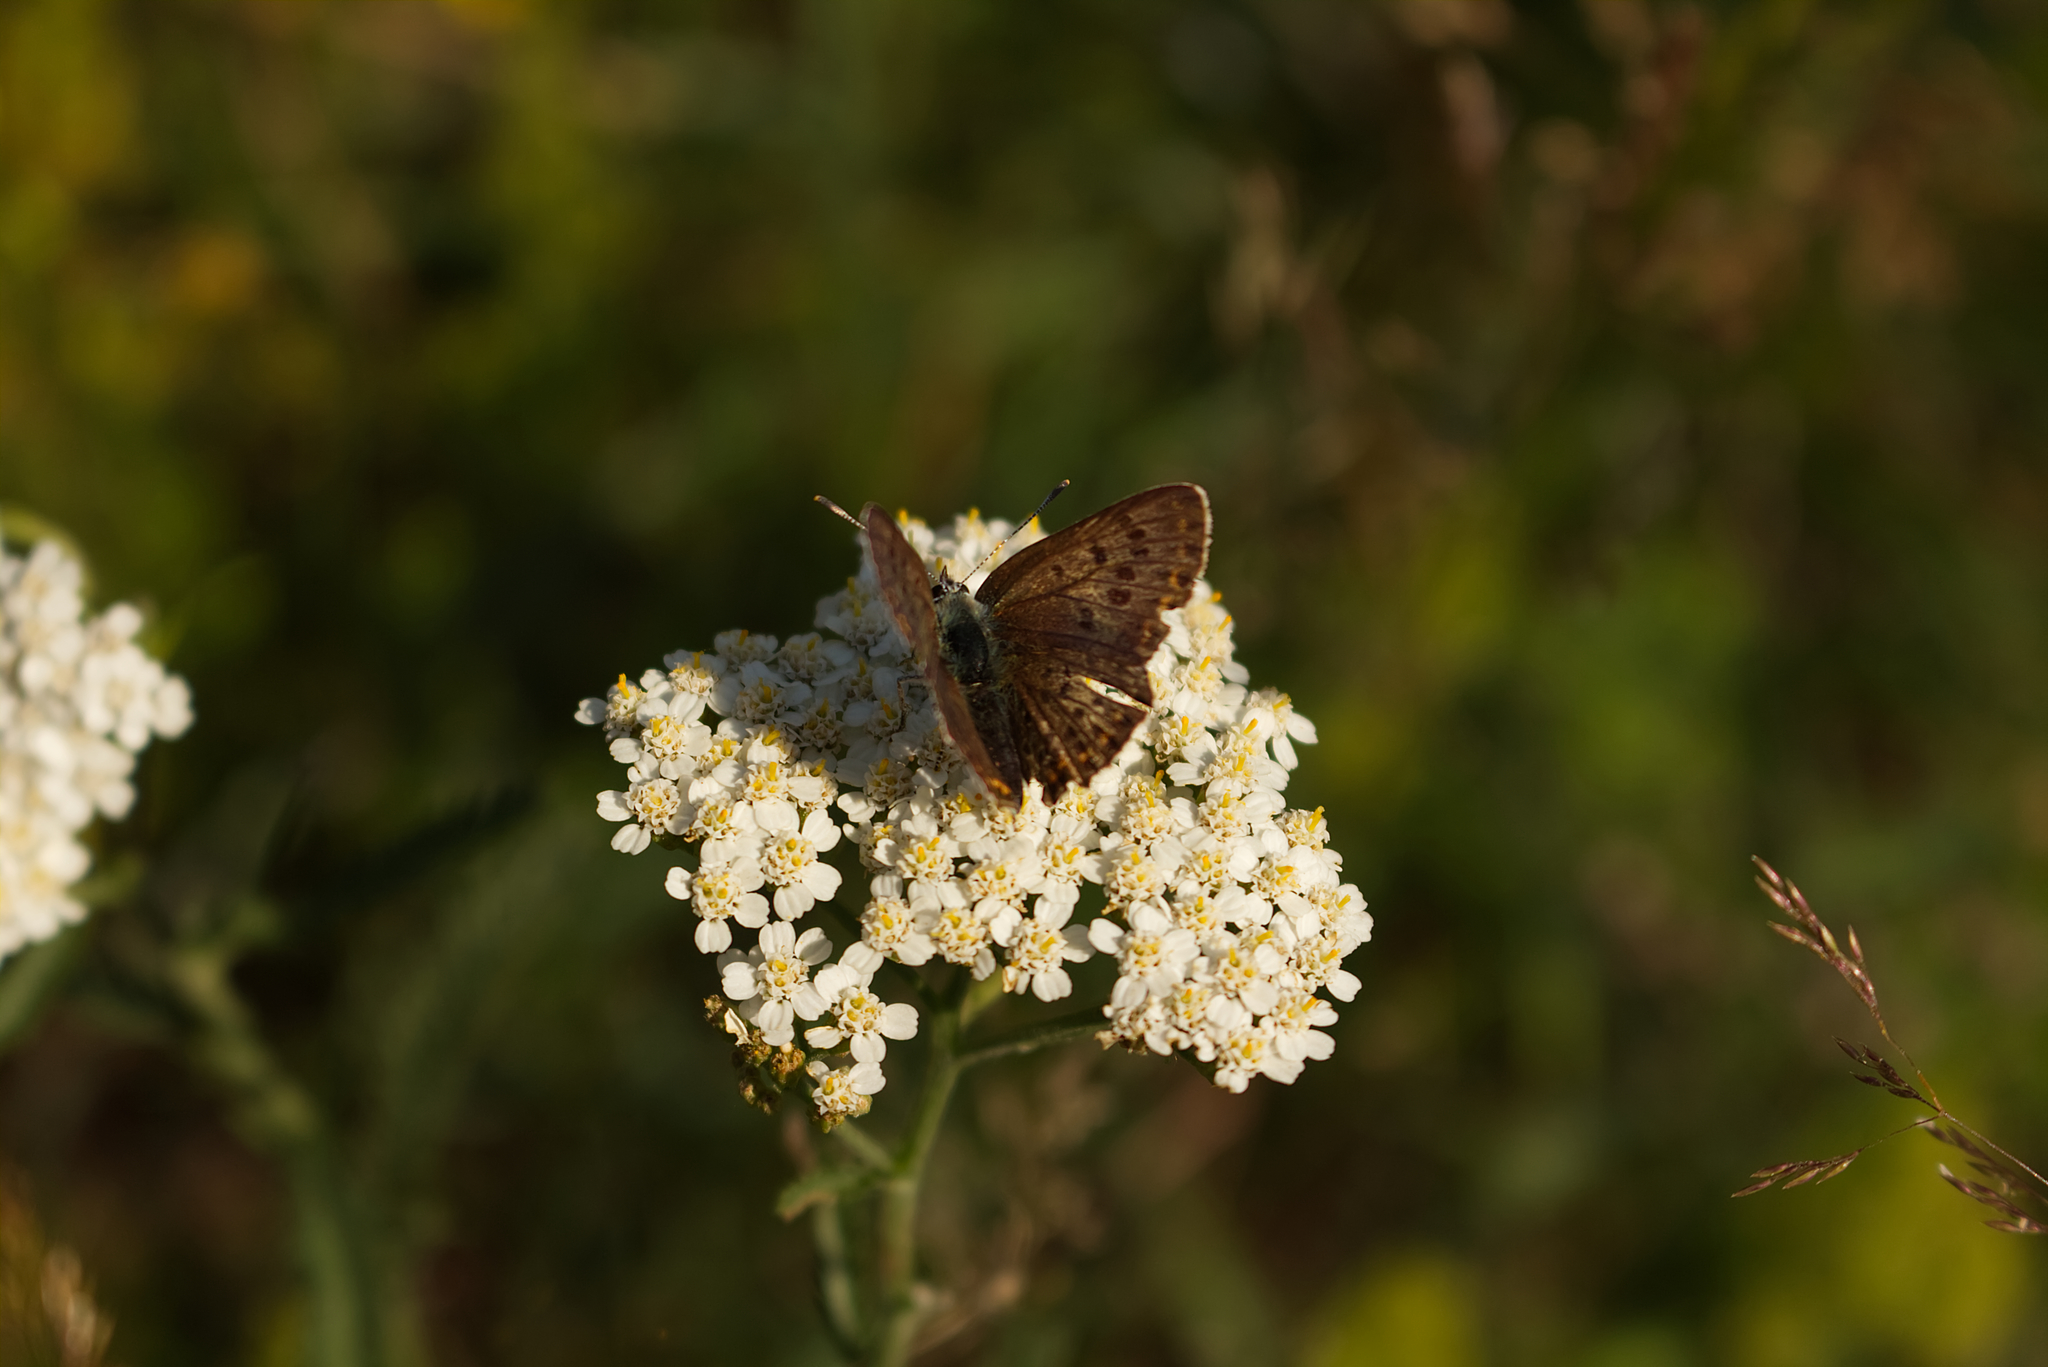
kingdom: Animalia
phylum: Arthropoda
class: Insecta
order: Lepidoptera
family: Lycaenidae
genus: Loweia
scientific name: Loweia tityrus
